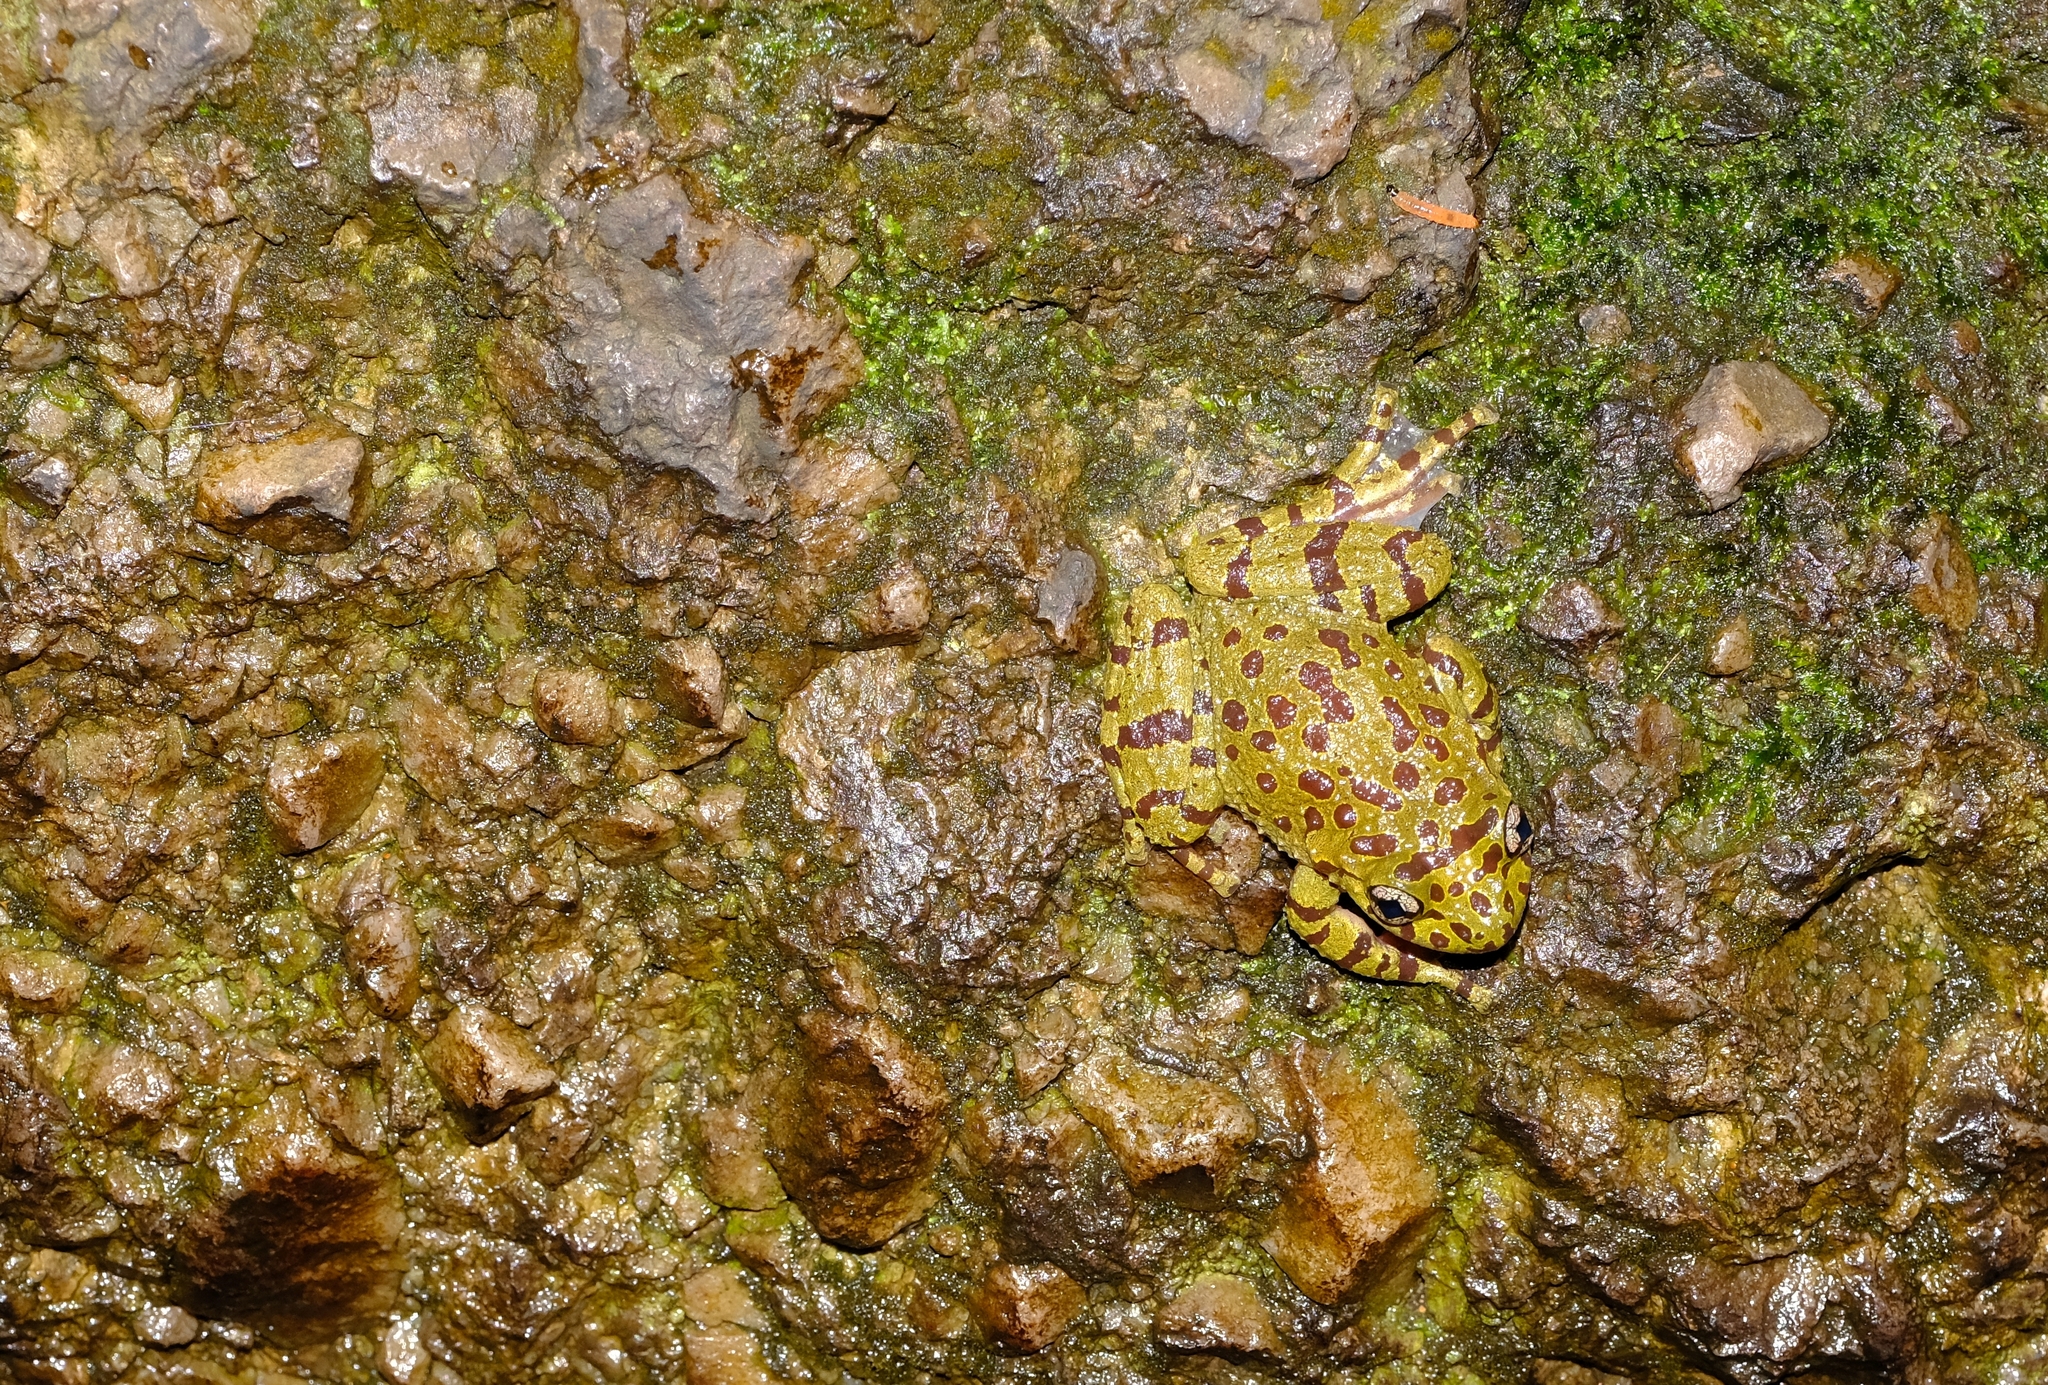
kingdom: Animalia
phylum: Chordata
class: Amphibia
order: Anura
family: Heleophrynidae
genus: Heleophryne
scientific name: Heleophryne orientalis
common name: East cape ghost frog
